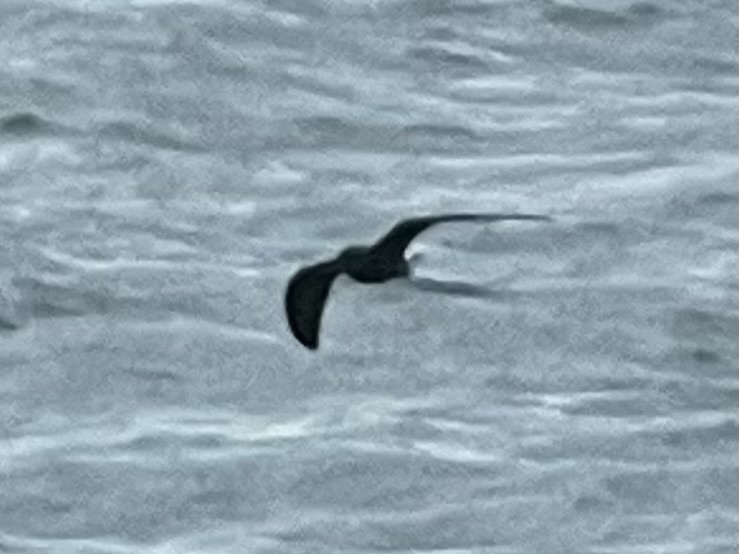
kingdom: Animalia
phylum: Chordata
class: Aves
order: Procellariiformes
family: Hydrobatidae
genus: Oceanodroma
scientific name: Oceanodroma leucorhoa
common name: Leach's storm-petrel
